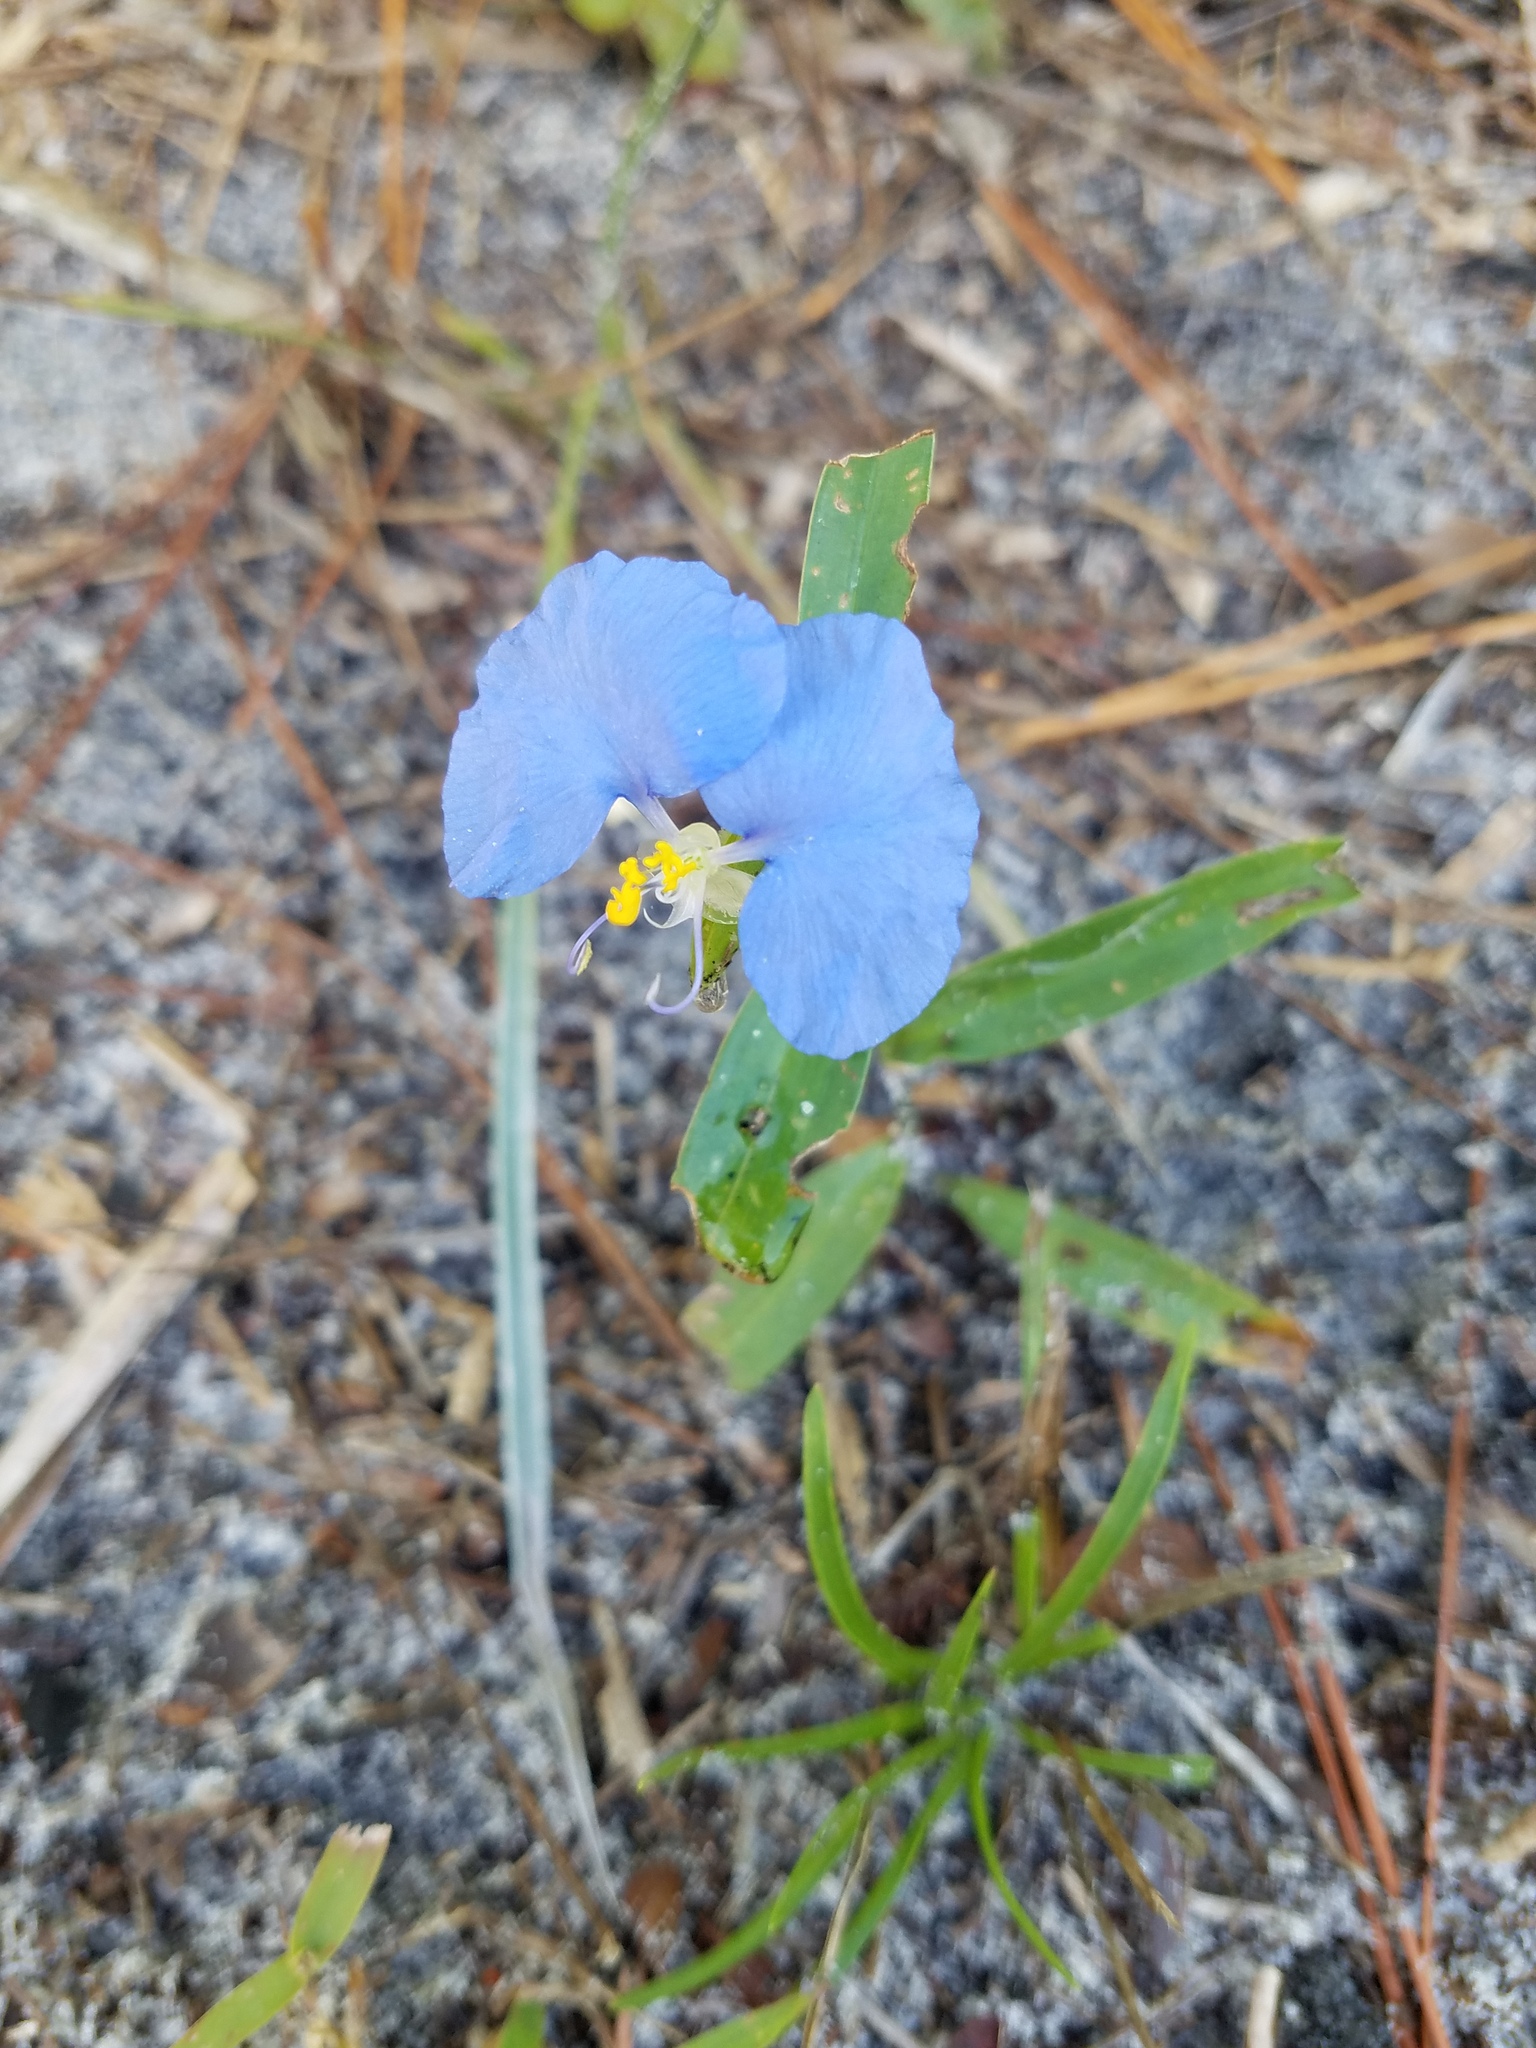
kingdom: Plantae
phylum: Tracheophyta
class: Liliopsida
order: Commelinales
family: Commelinaceae
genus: Commelina
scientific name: Commelina erecta
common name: Blousel blommetjie
